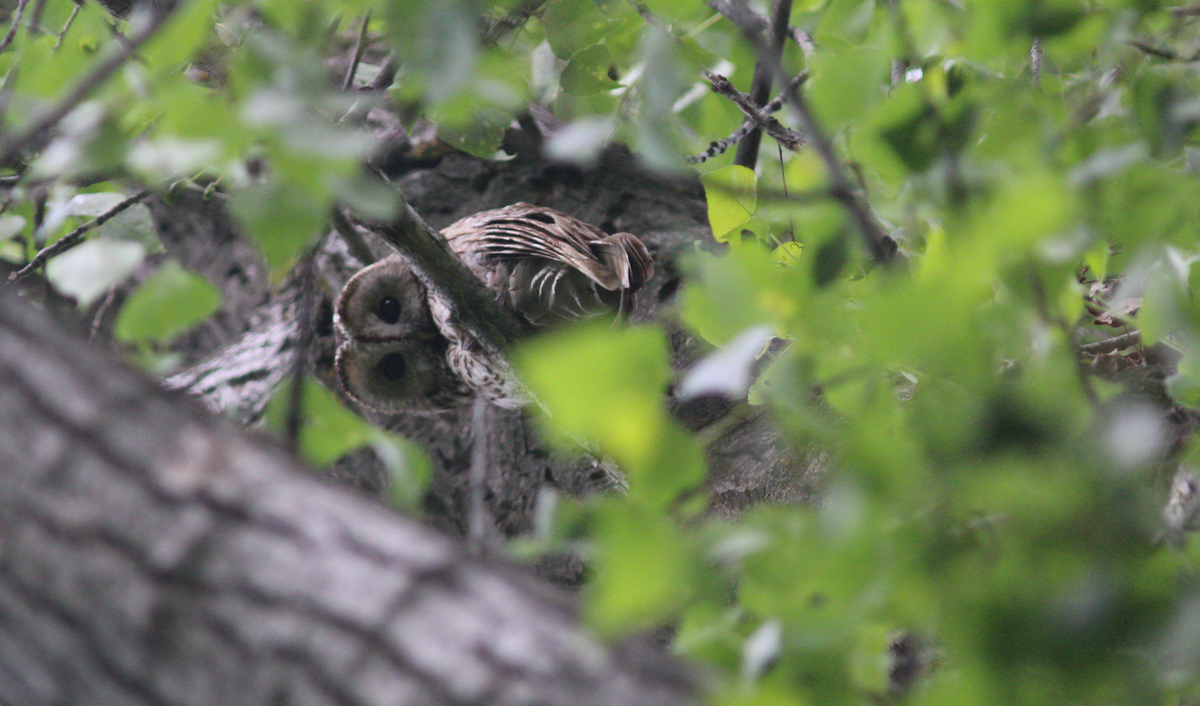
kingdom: Animalia
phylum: Chordata
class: Aves
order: Strigiformes
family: Strigidae
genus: Strix
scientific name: Strix aluco
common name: Tawny owl
